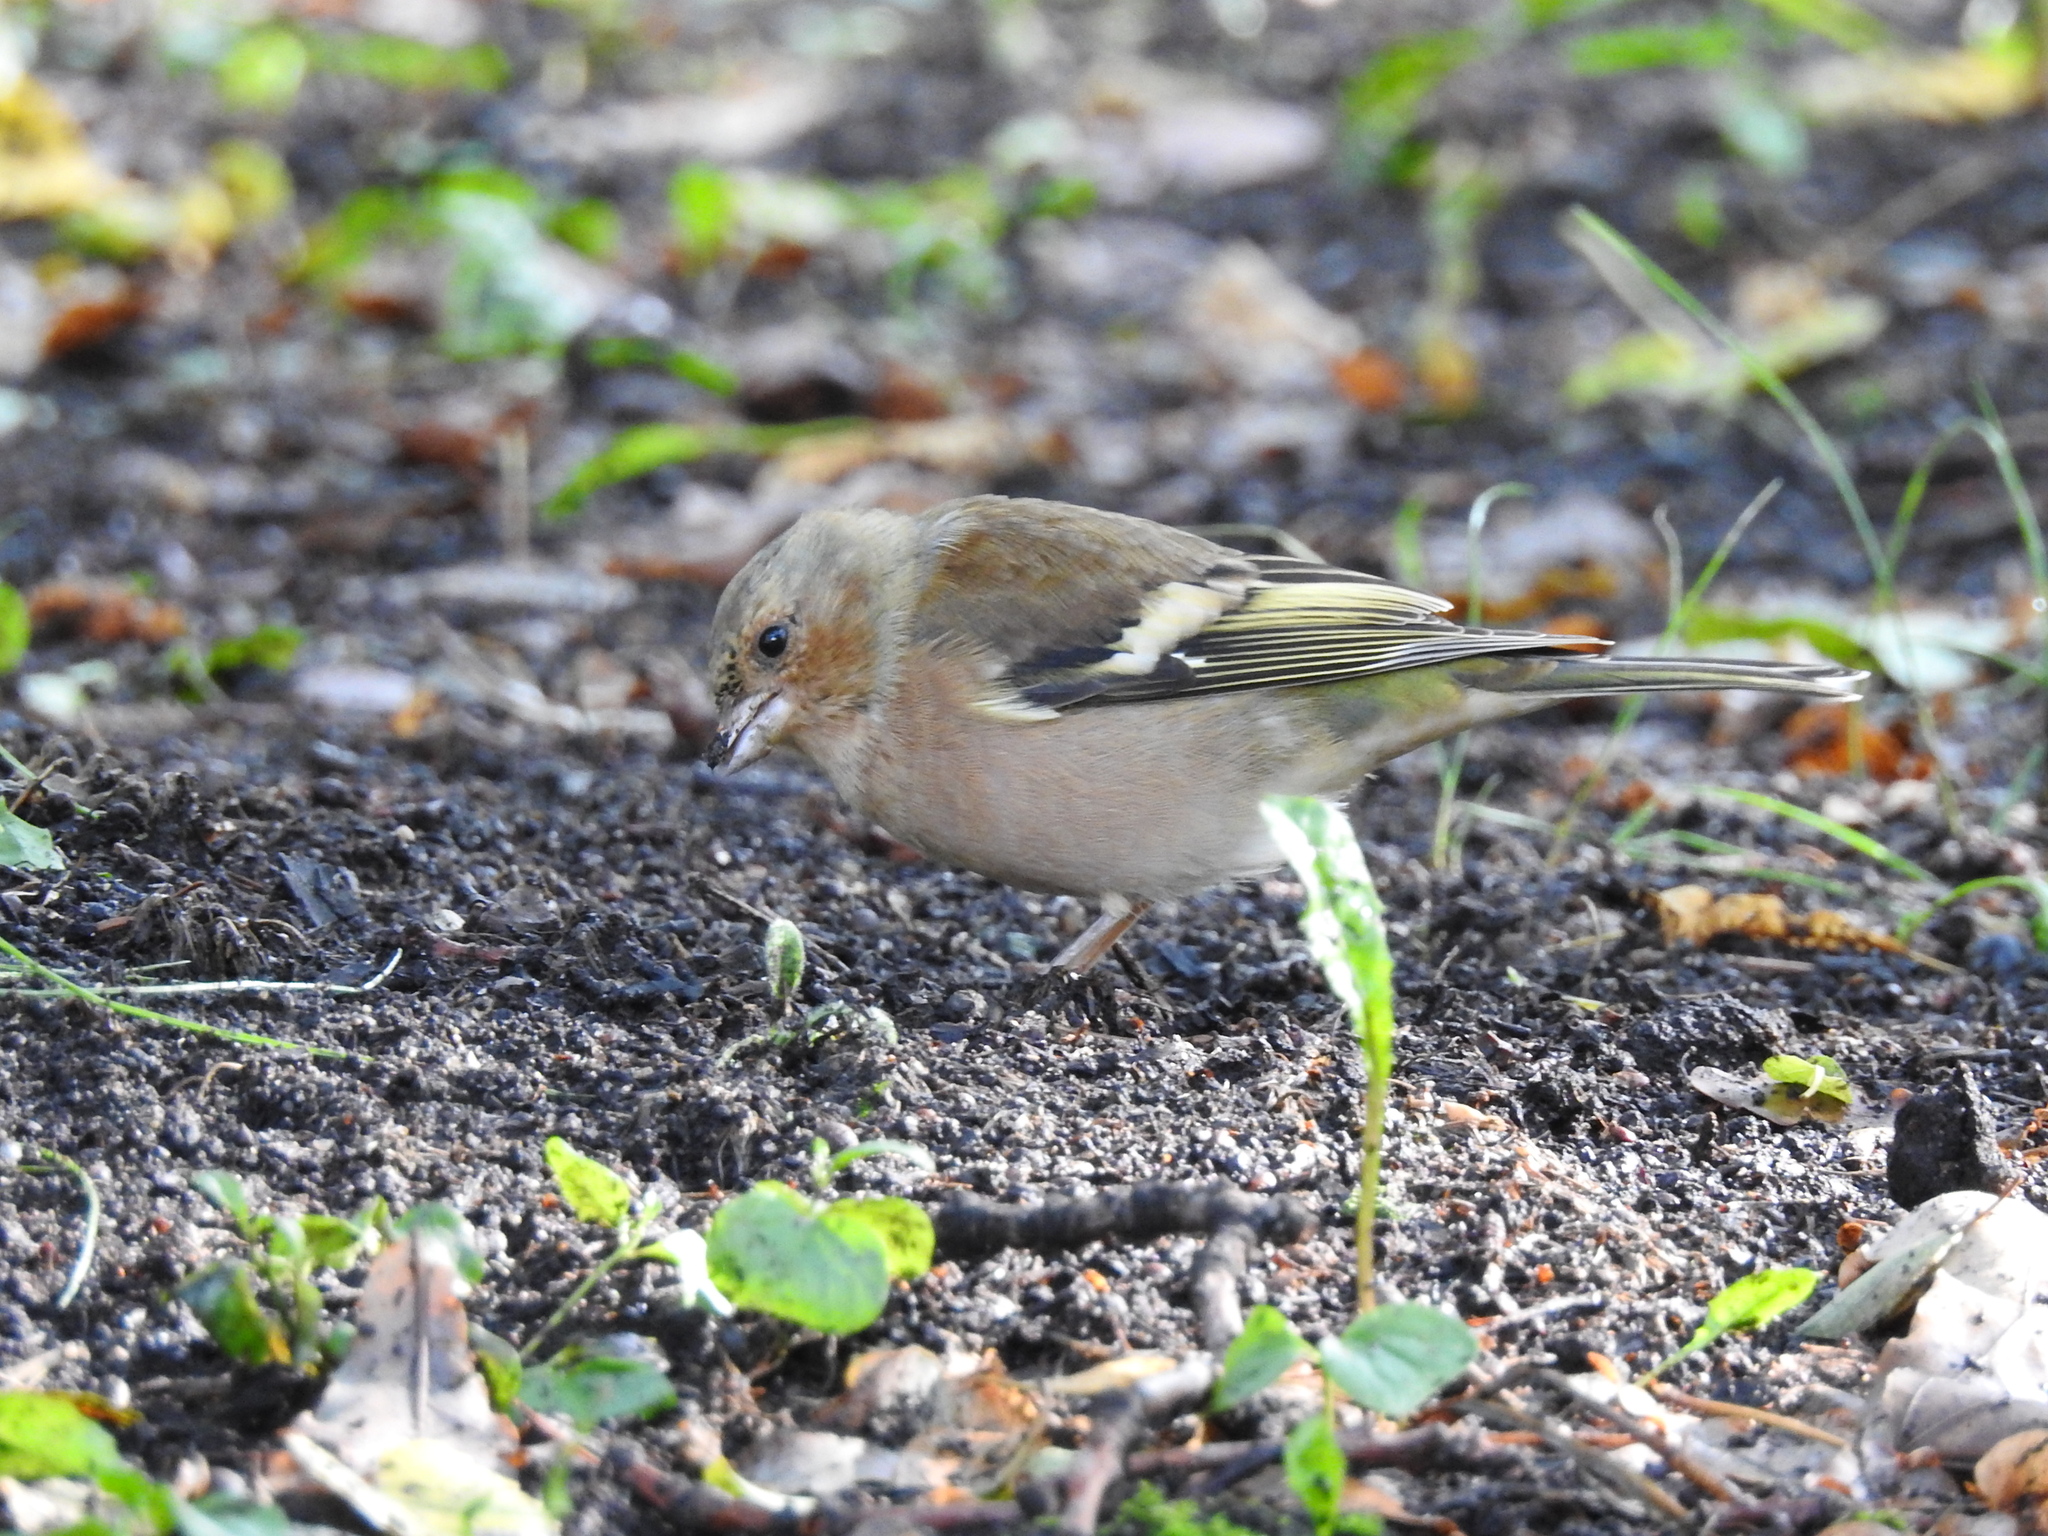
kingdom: Animalia
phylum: Chordata
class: Aves
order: Passeriformes
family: Fringillidae
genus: Fringilla
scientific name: Fringilla coelebs
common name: Common chaffinch
